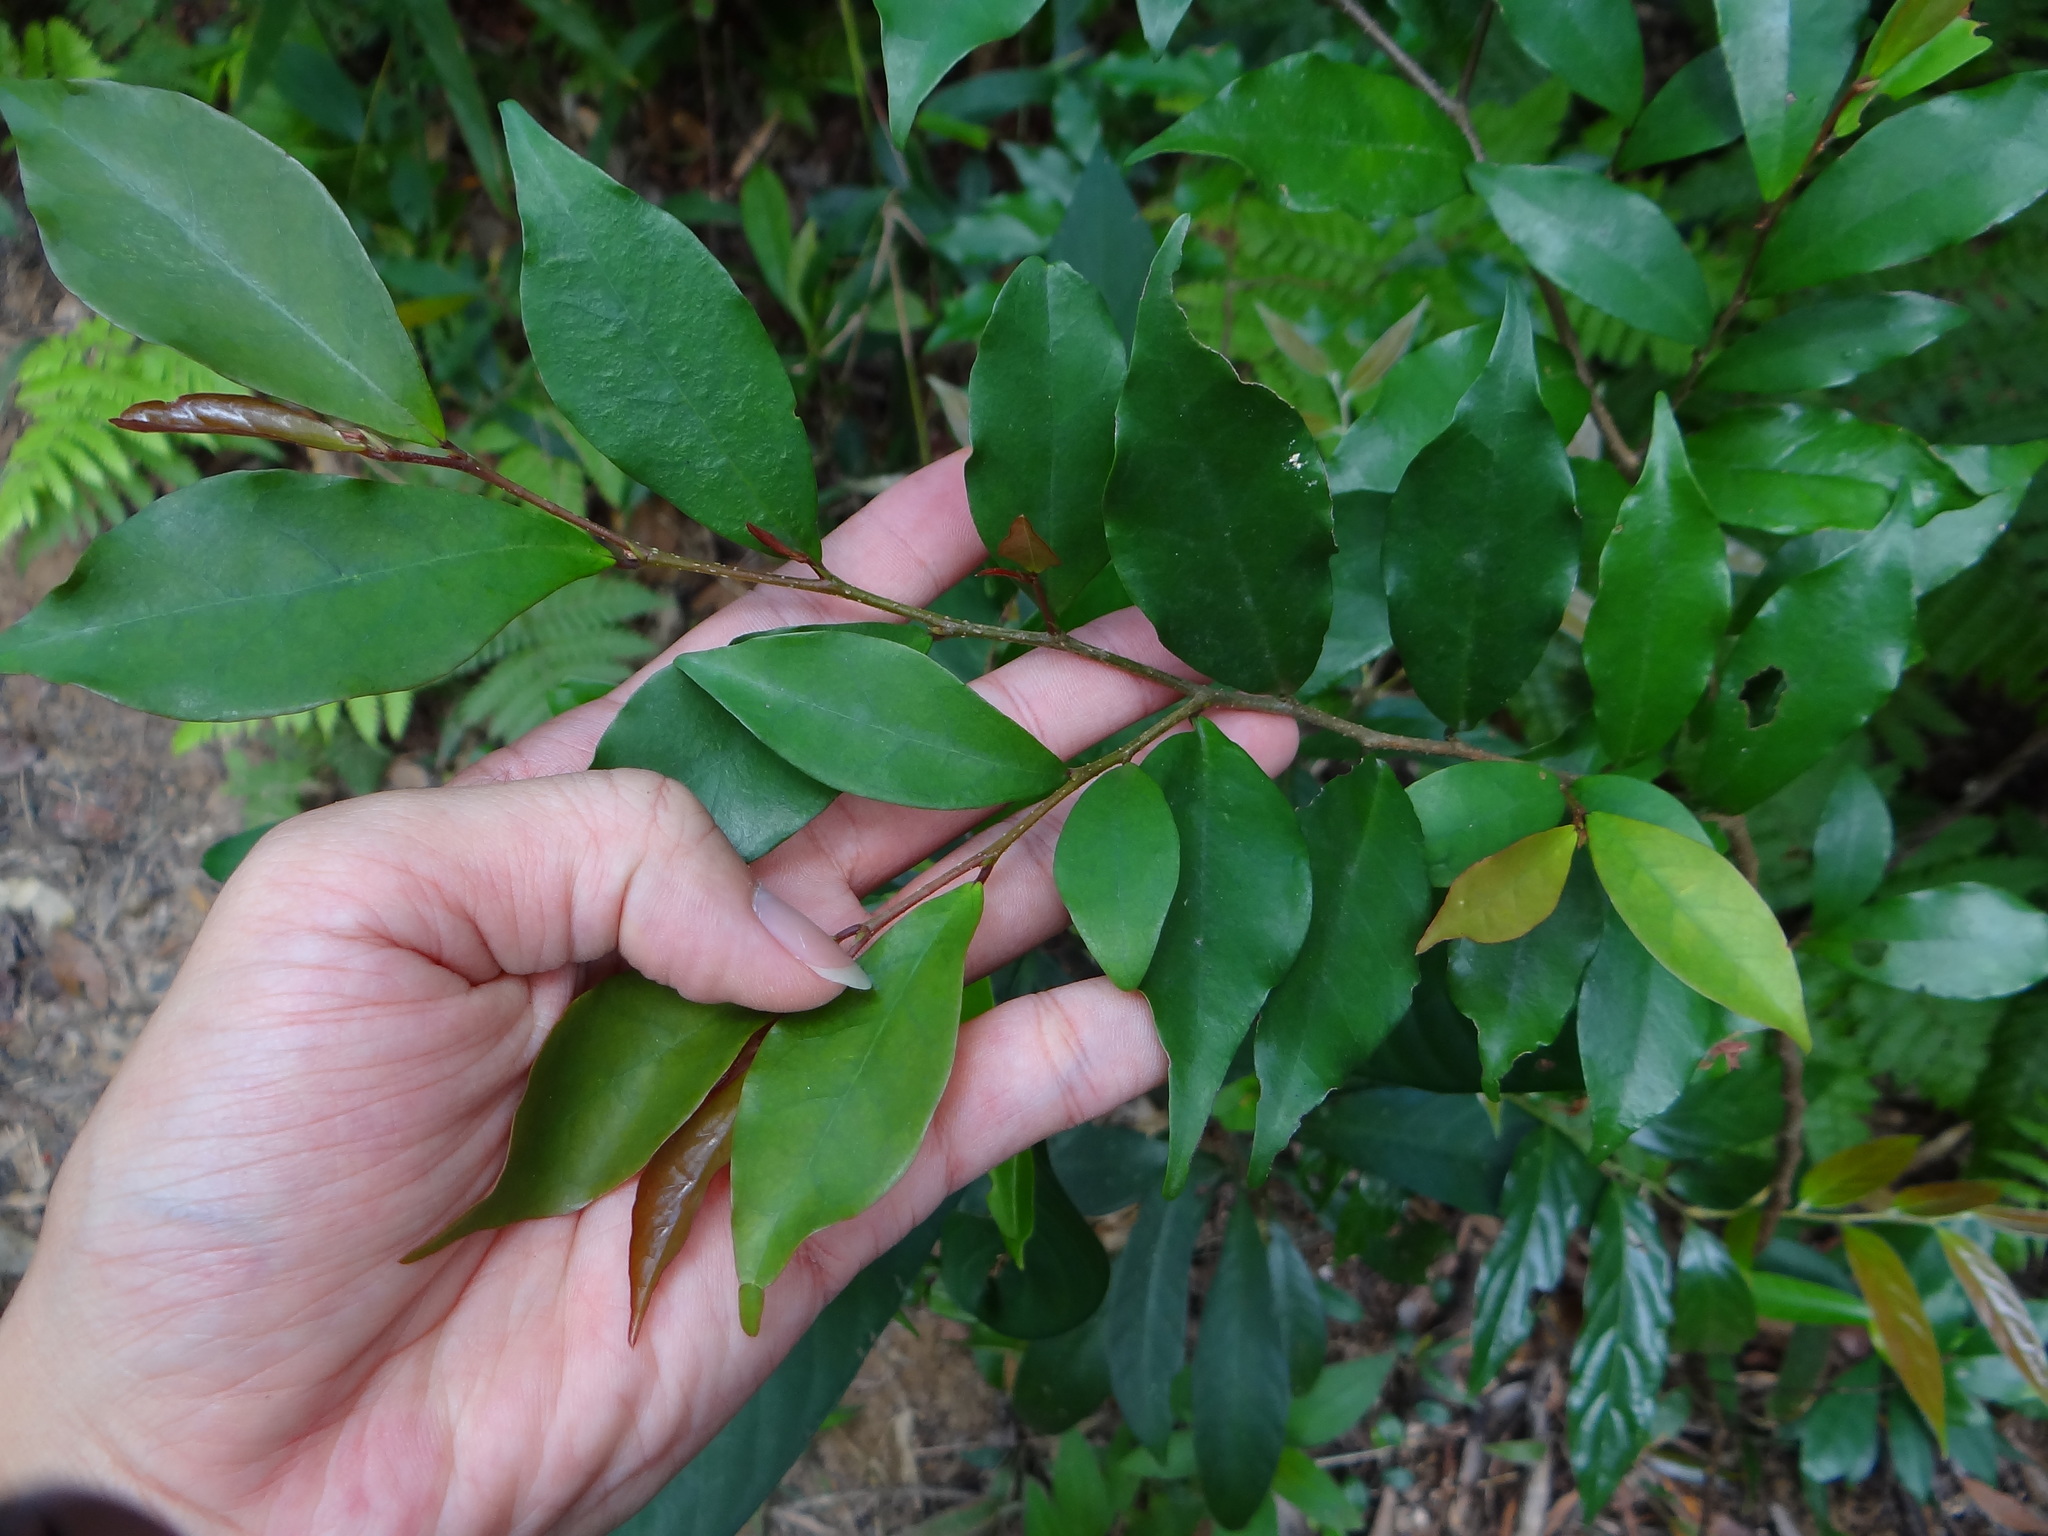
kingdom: Plantae
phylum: Tracheophyta
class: Magnoliopsida
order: Malpighiales
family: Phyllanthaceae
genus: Antidesma
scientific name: Antidesma japonicum
